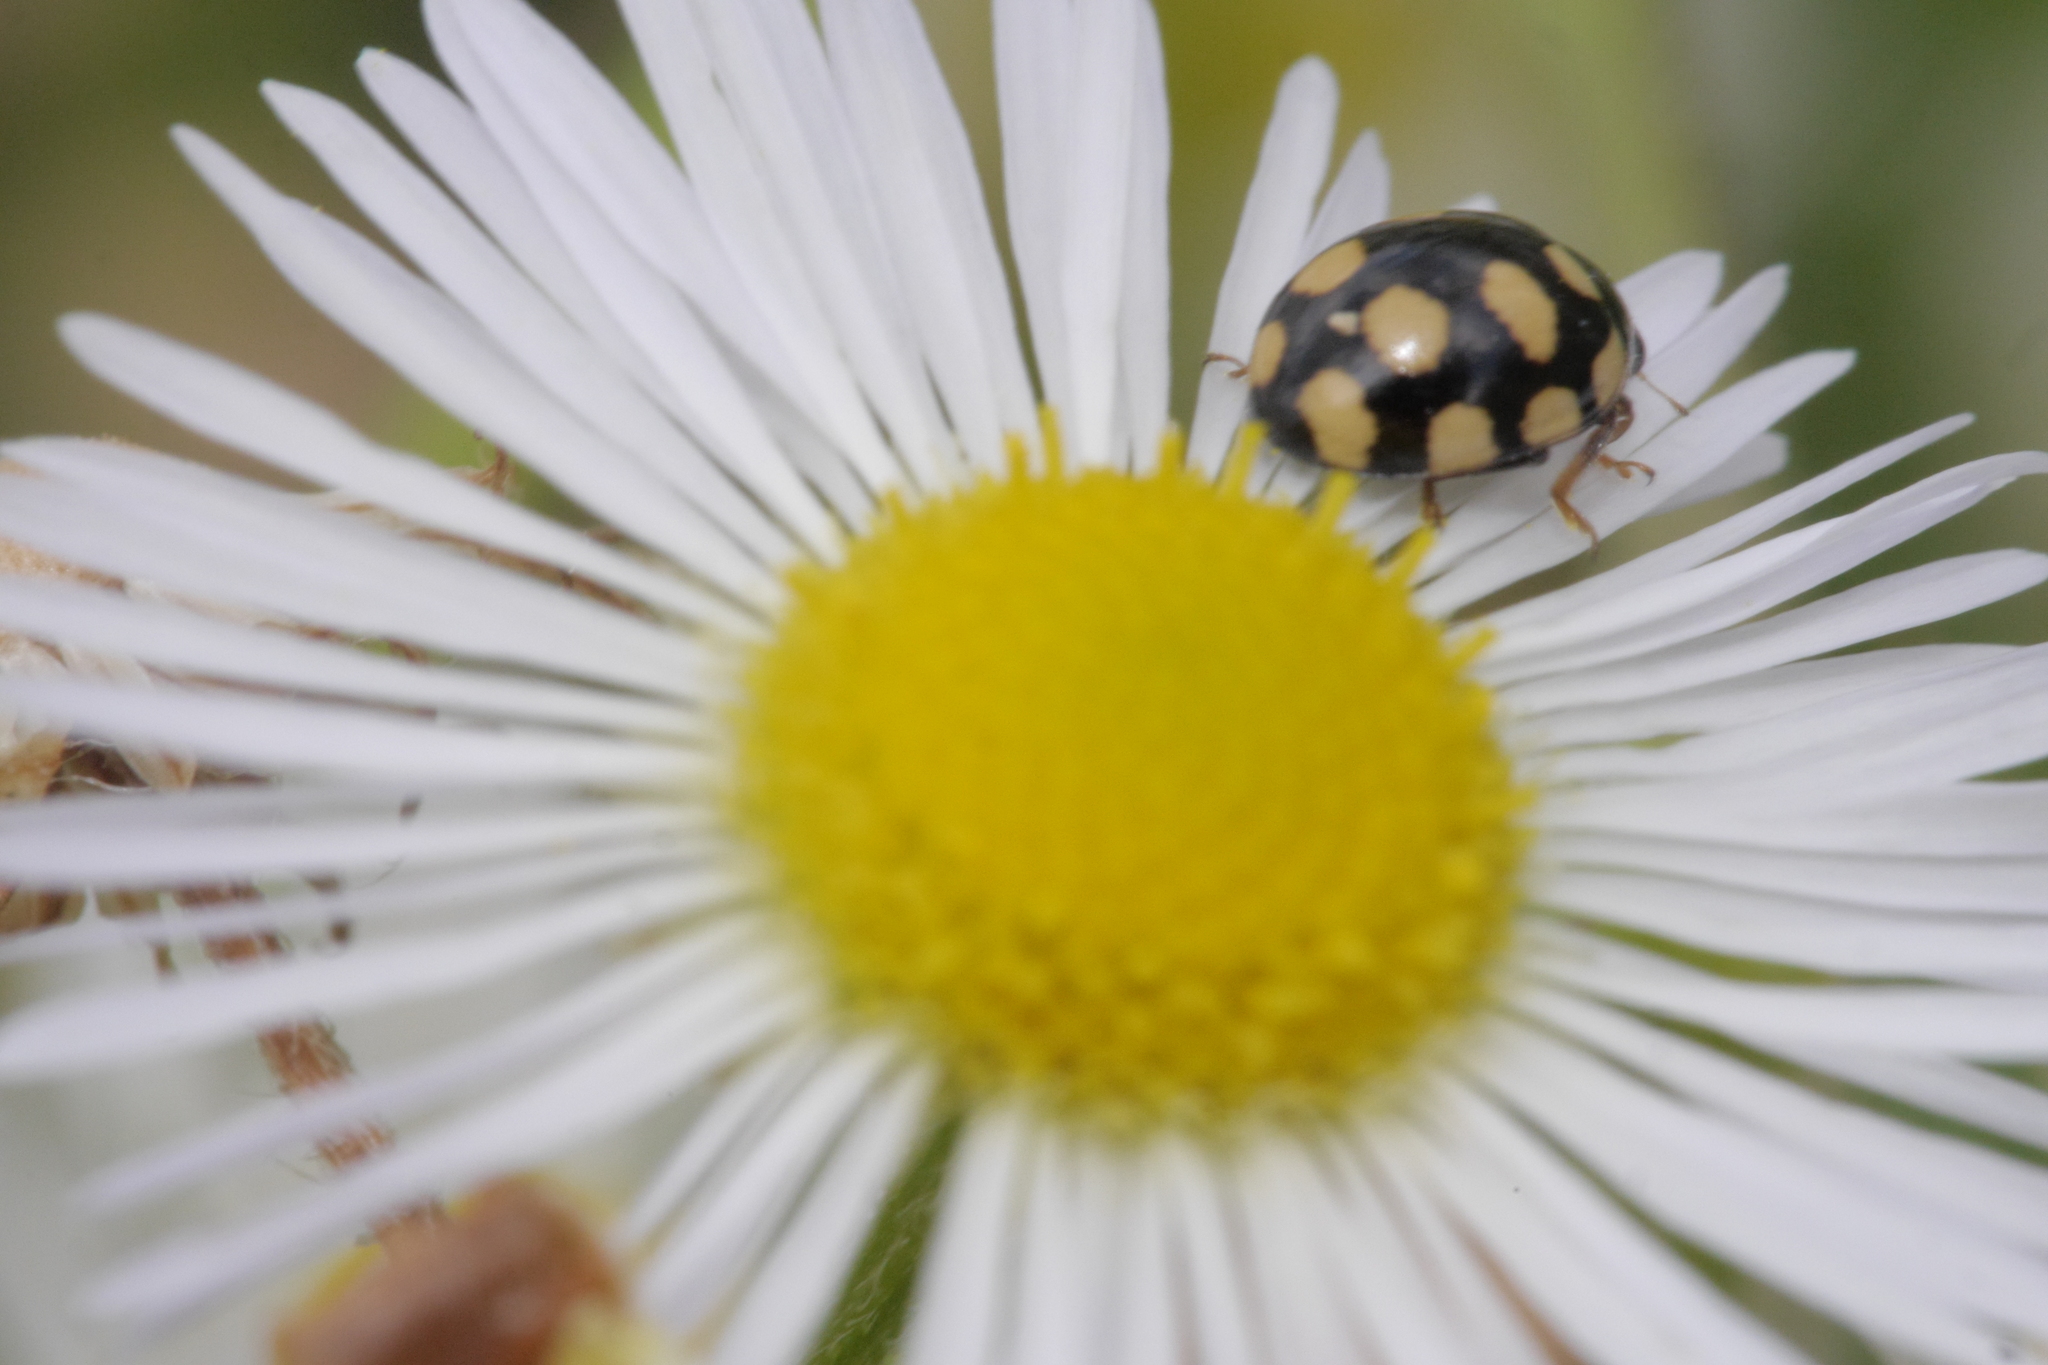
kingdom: Animalia
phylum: Arthropoda
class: Insecta
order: Coleoptera
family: Coccinellidae
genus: Coccinula
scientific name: Coccinula quatuordecimpustulata
